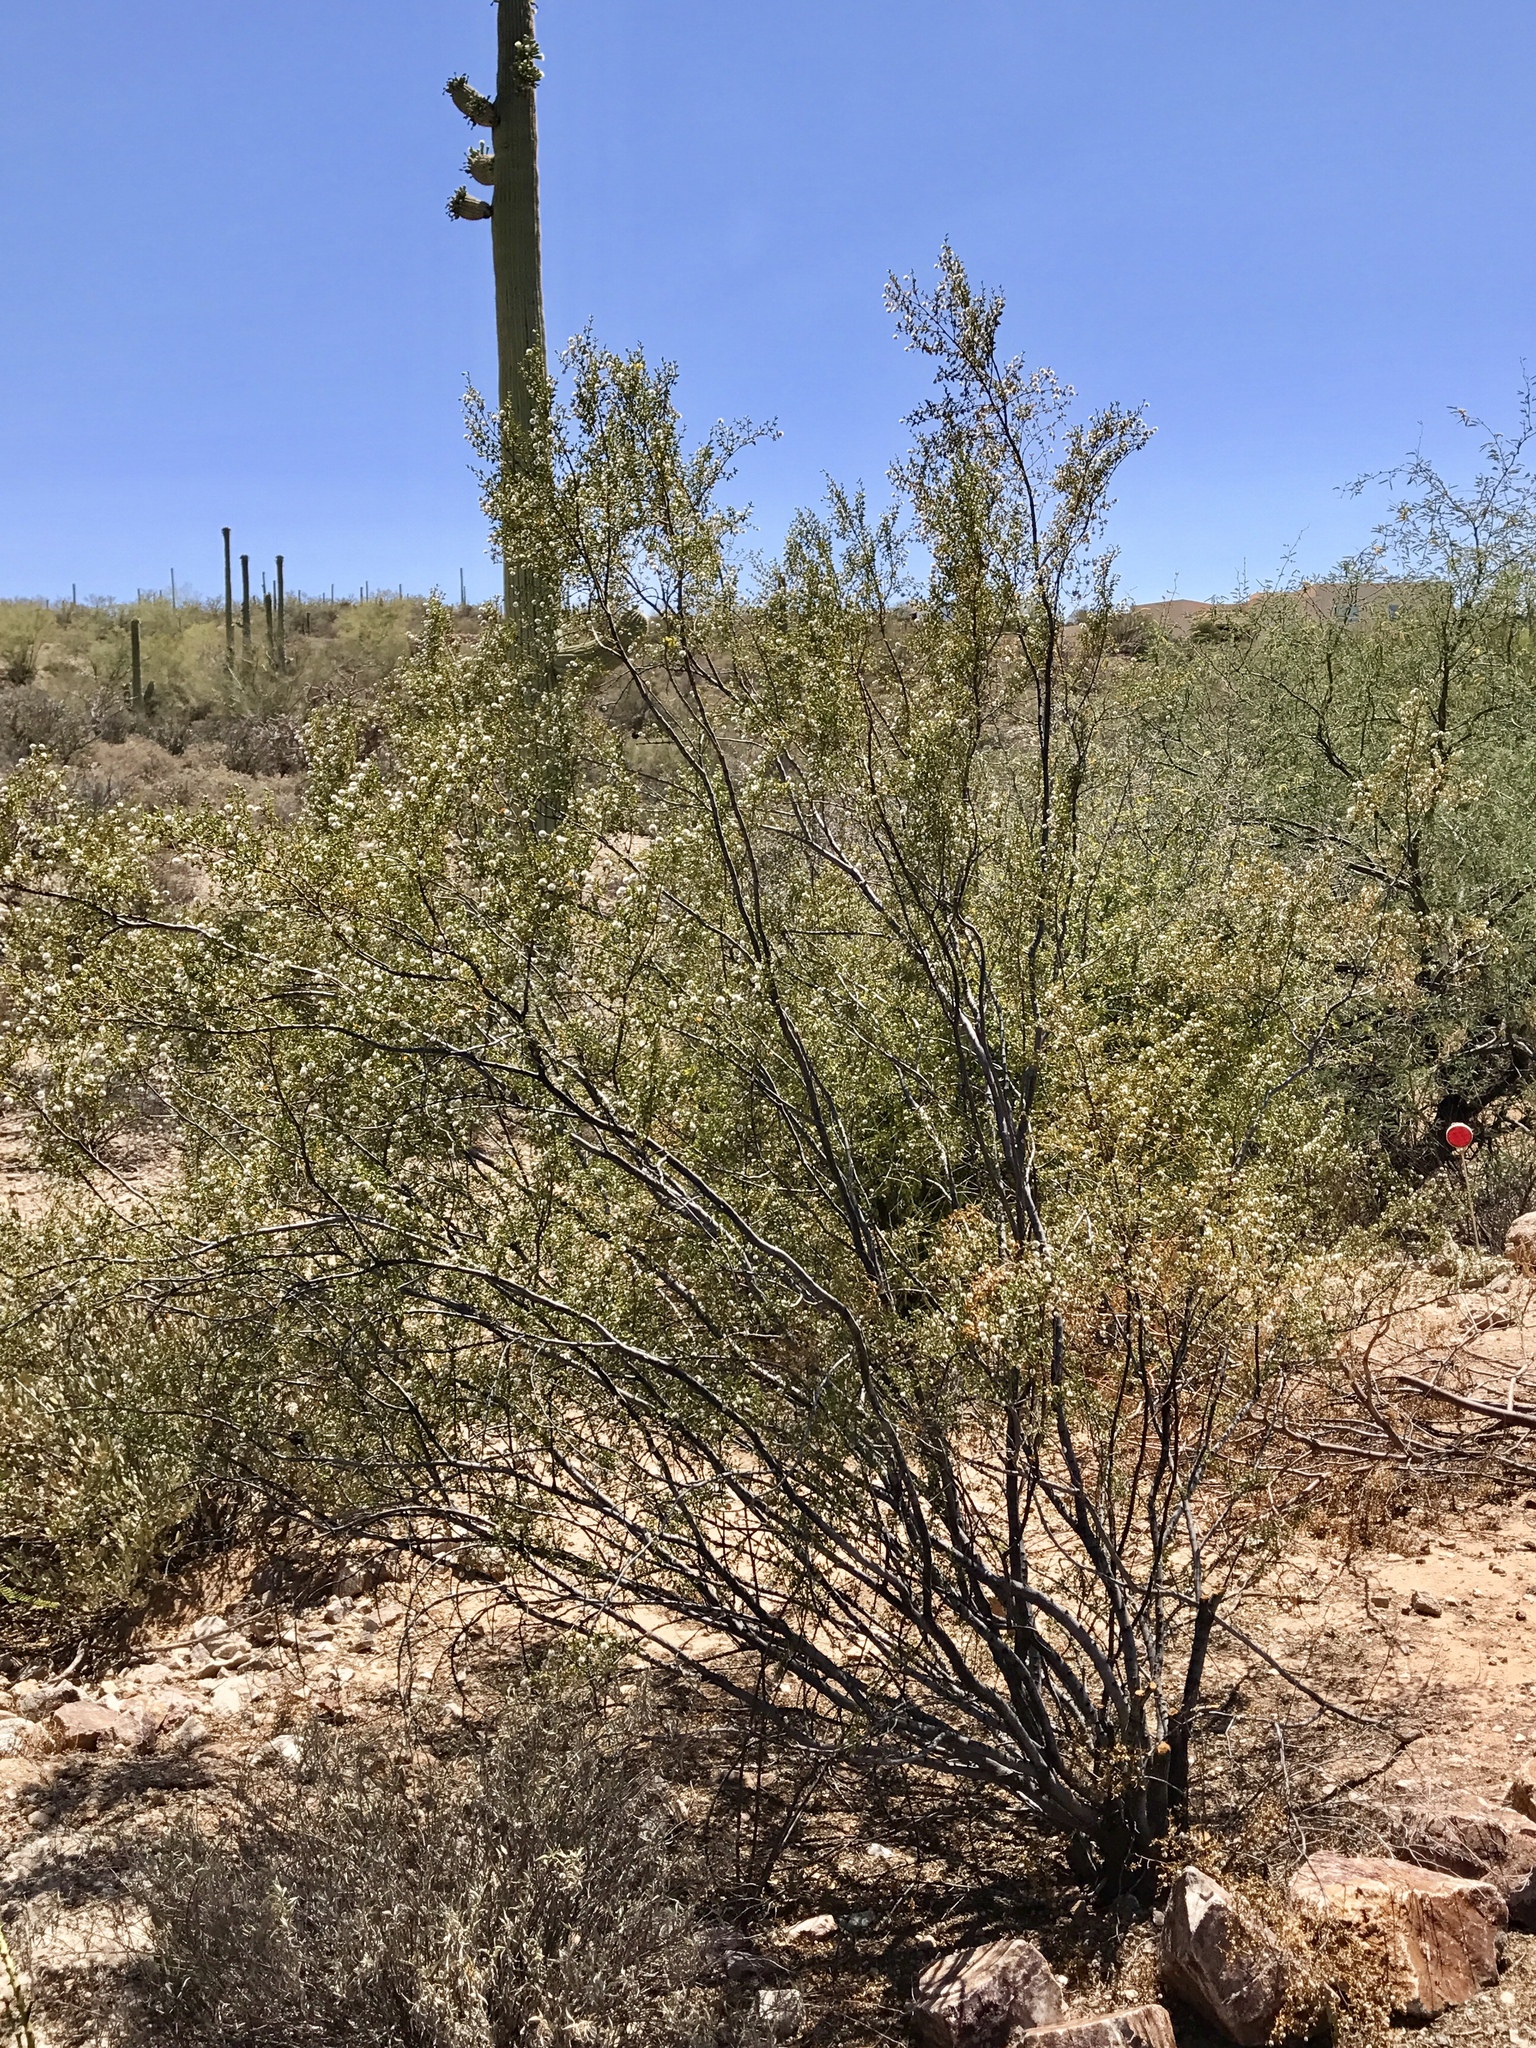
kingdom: Plantae
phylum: Tracheophyta
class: Magnoliopsida
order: Zygophyllales
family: Zygophyllaceae
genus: Larrea
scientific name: Larrea tridentata
